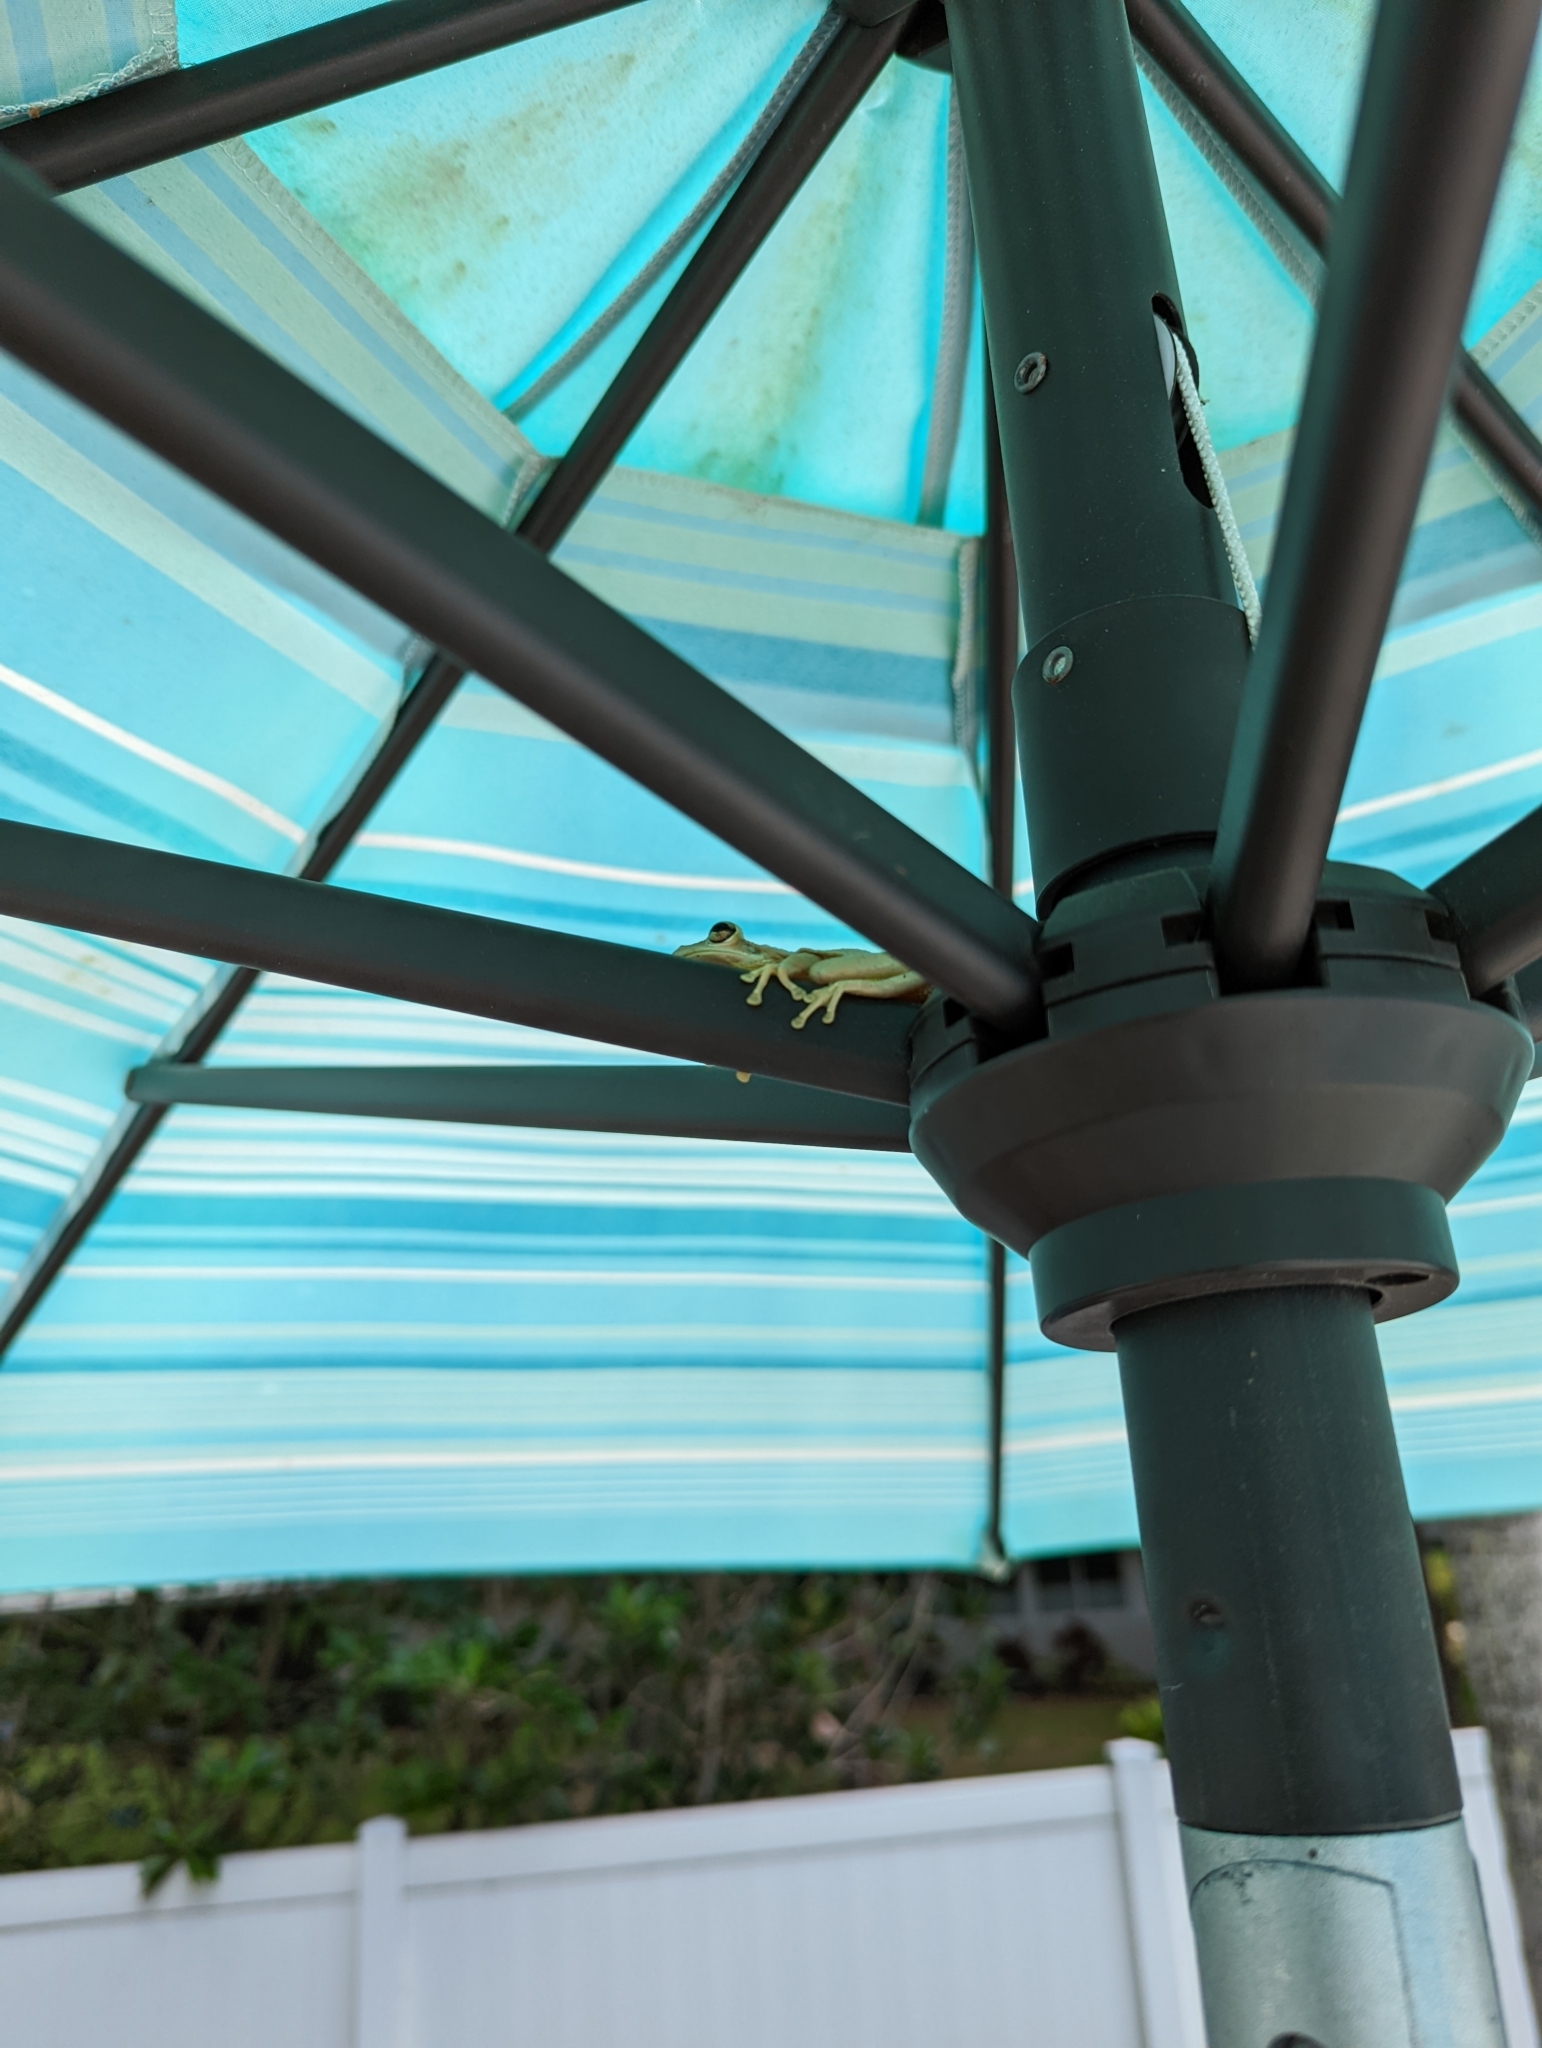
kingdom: Animalia
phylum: Chordata
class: Amphibia
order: Anura
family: Hylidae
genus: Osteopilus
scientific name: Osteopilus septentrionalis
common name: Cuban treefrog
